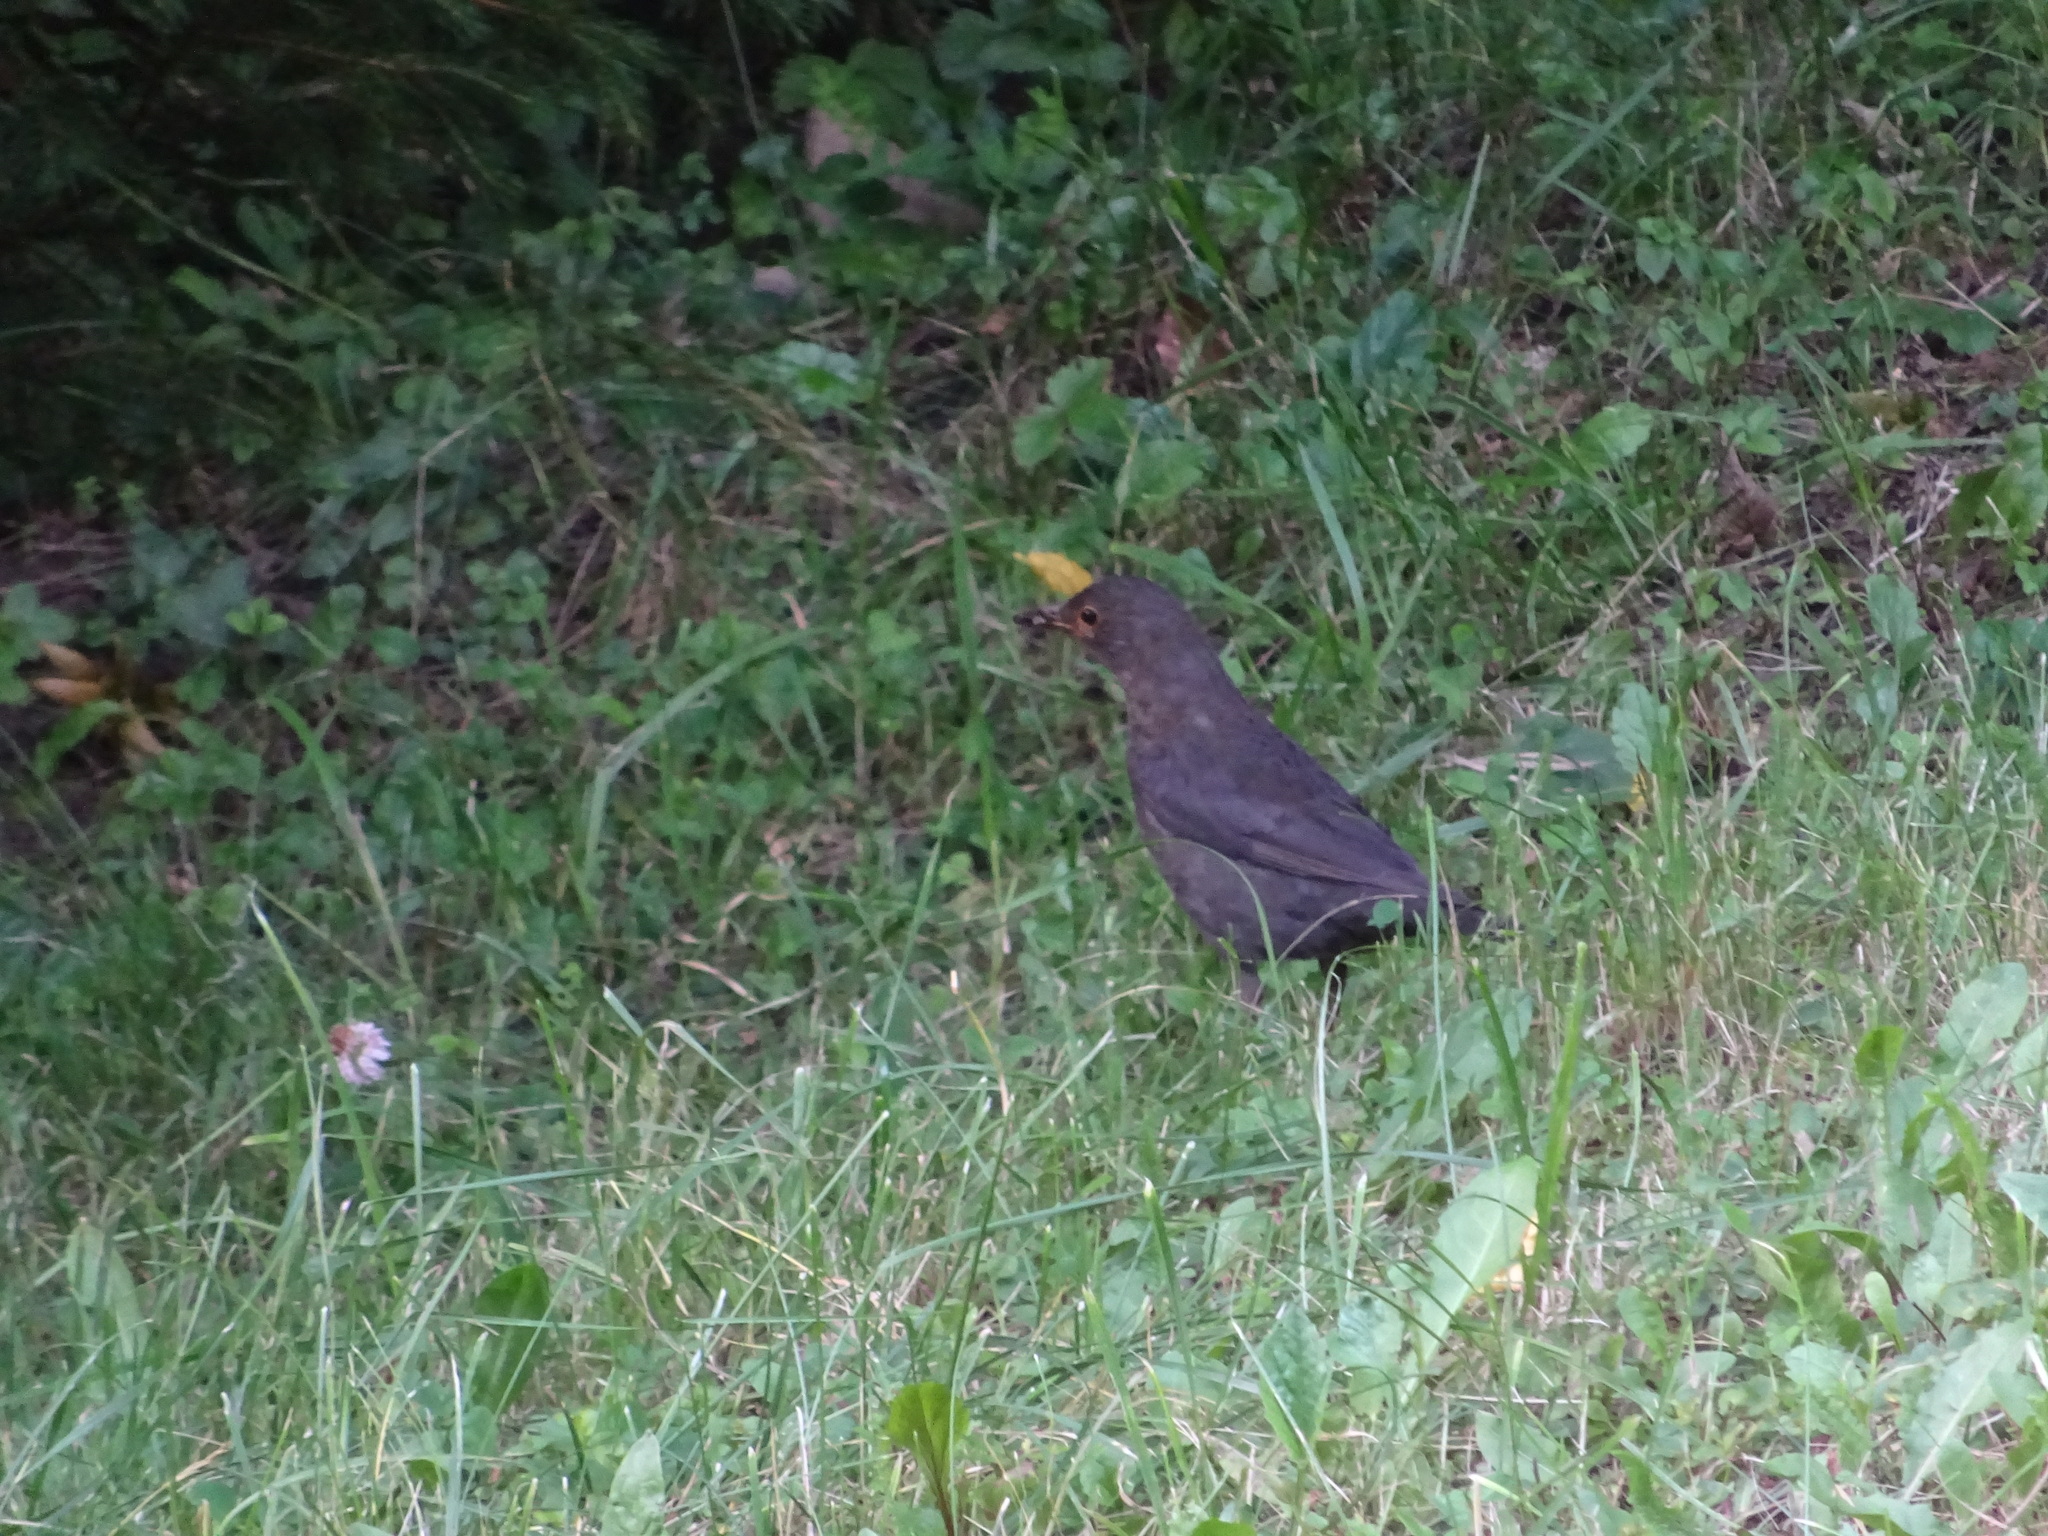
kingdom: Animalia
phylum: Chordata
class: Aves
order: Passeriformes
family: Turdidae
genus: Turdus
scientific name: Turdus merula
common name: Common blackbird
